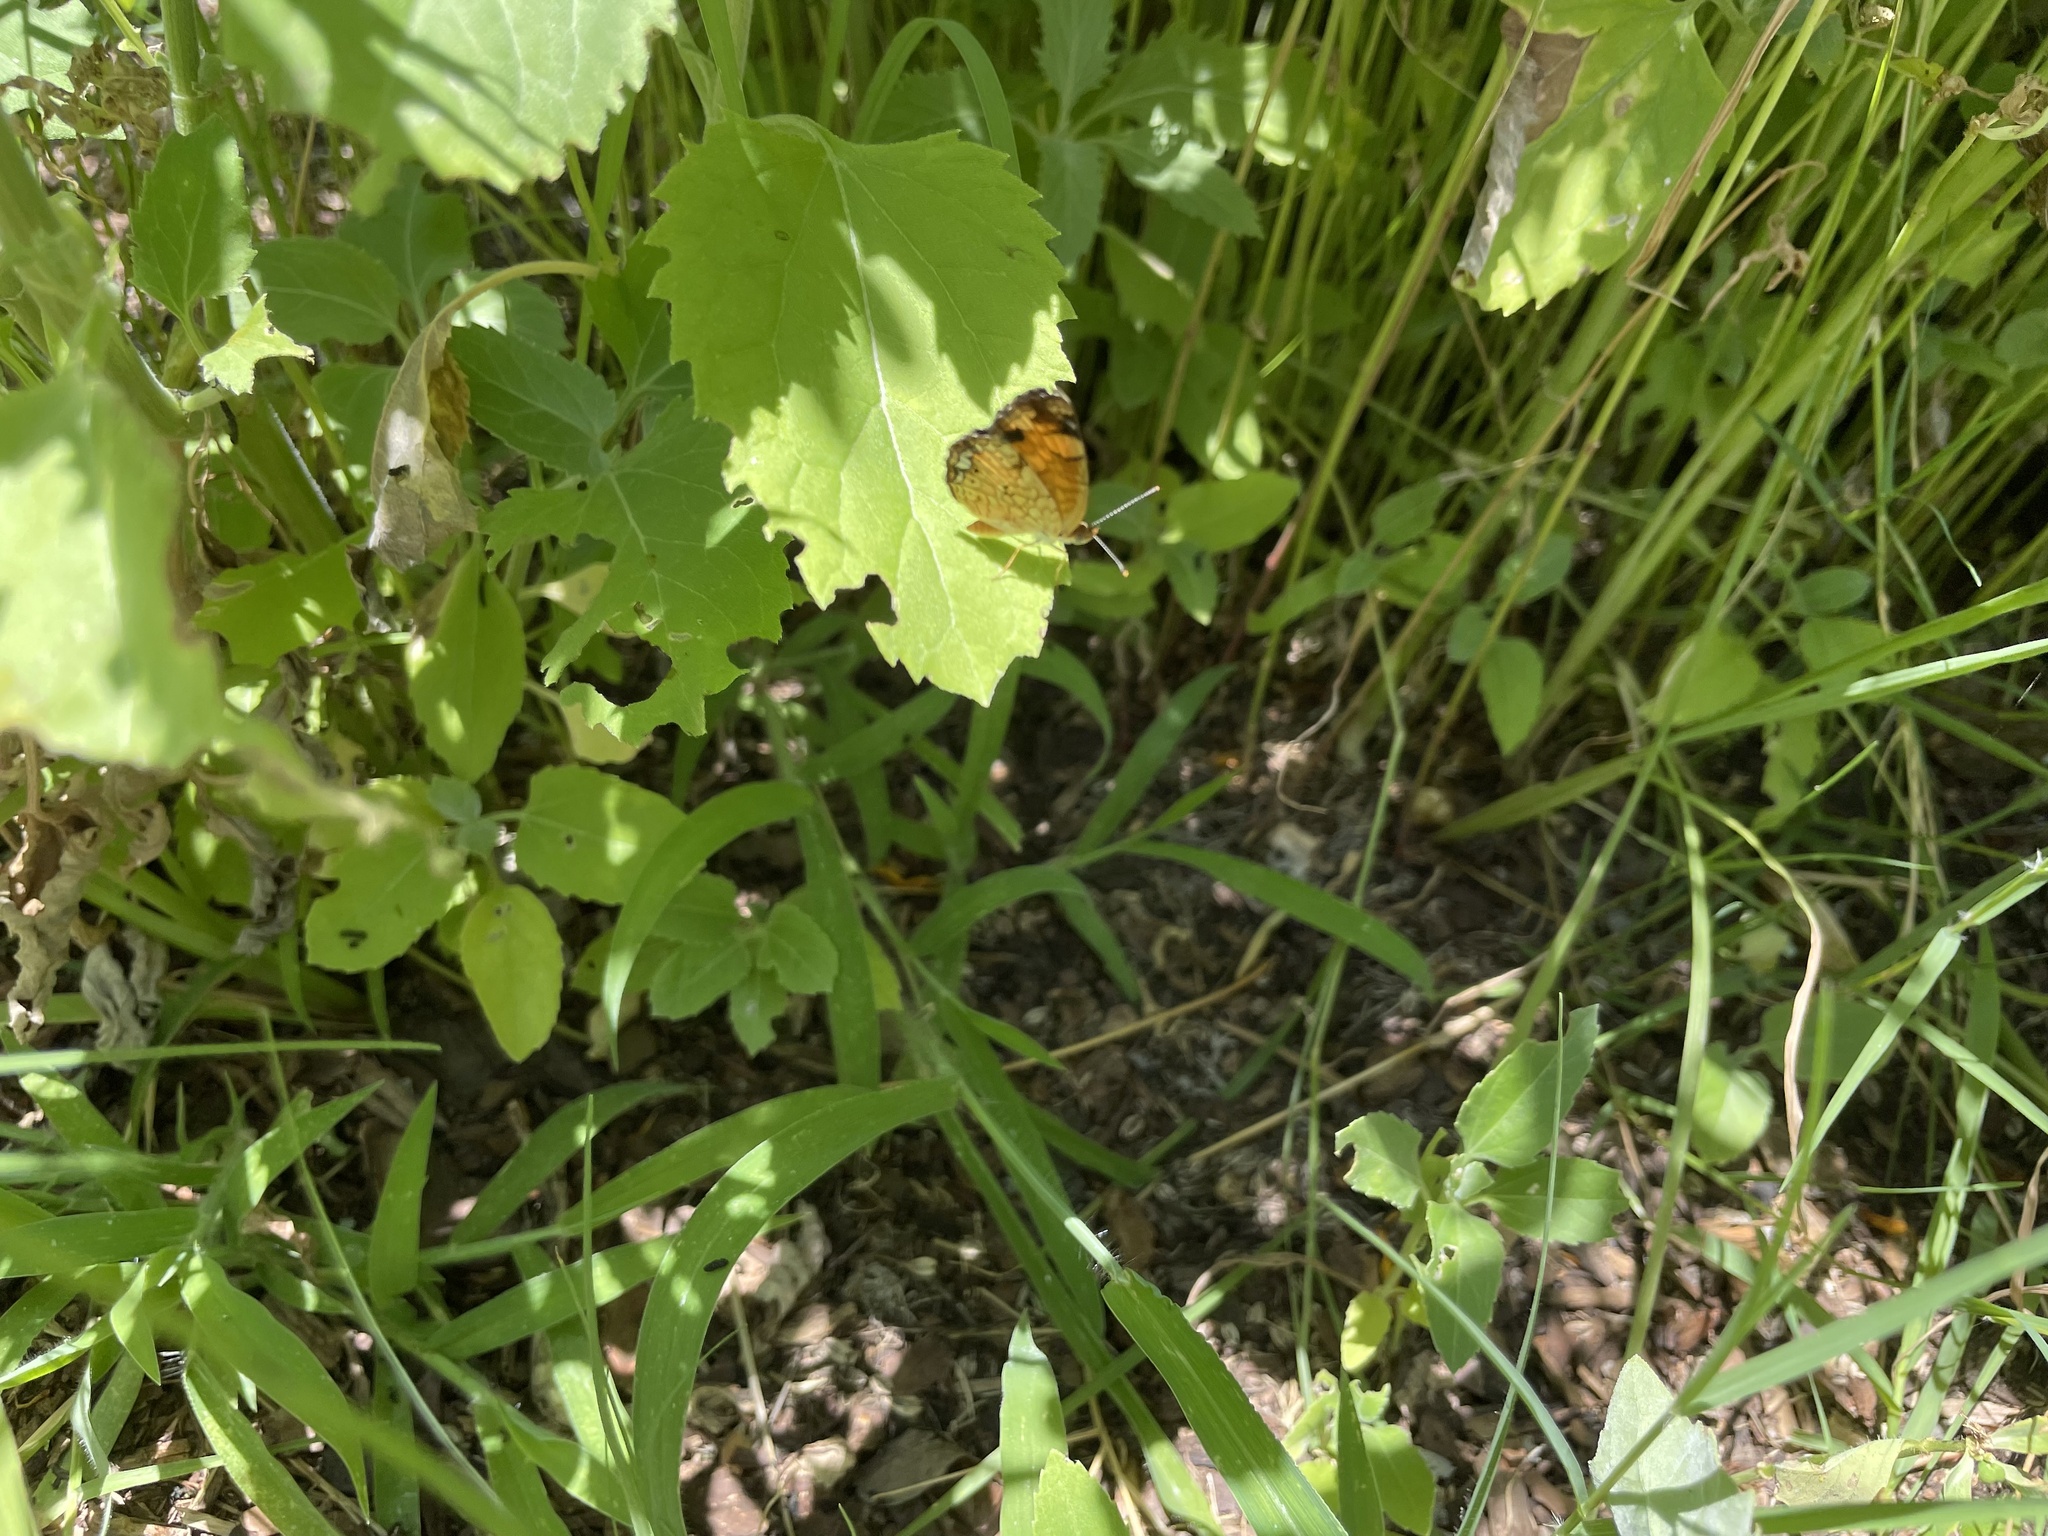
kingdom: Animalia
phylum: Arthropoda
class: Insecta
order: Lepidoptera
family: Nymphalidae
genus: Phyciodes
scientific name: Phyciodes tharos
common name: Pearl crescent
